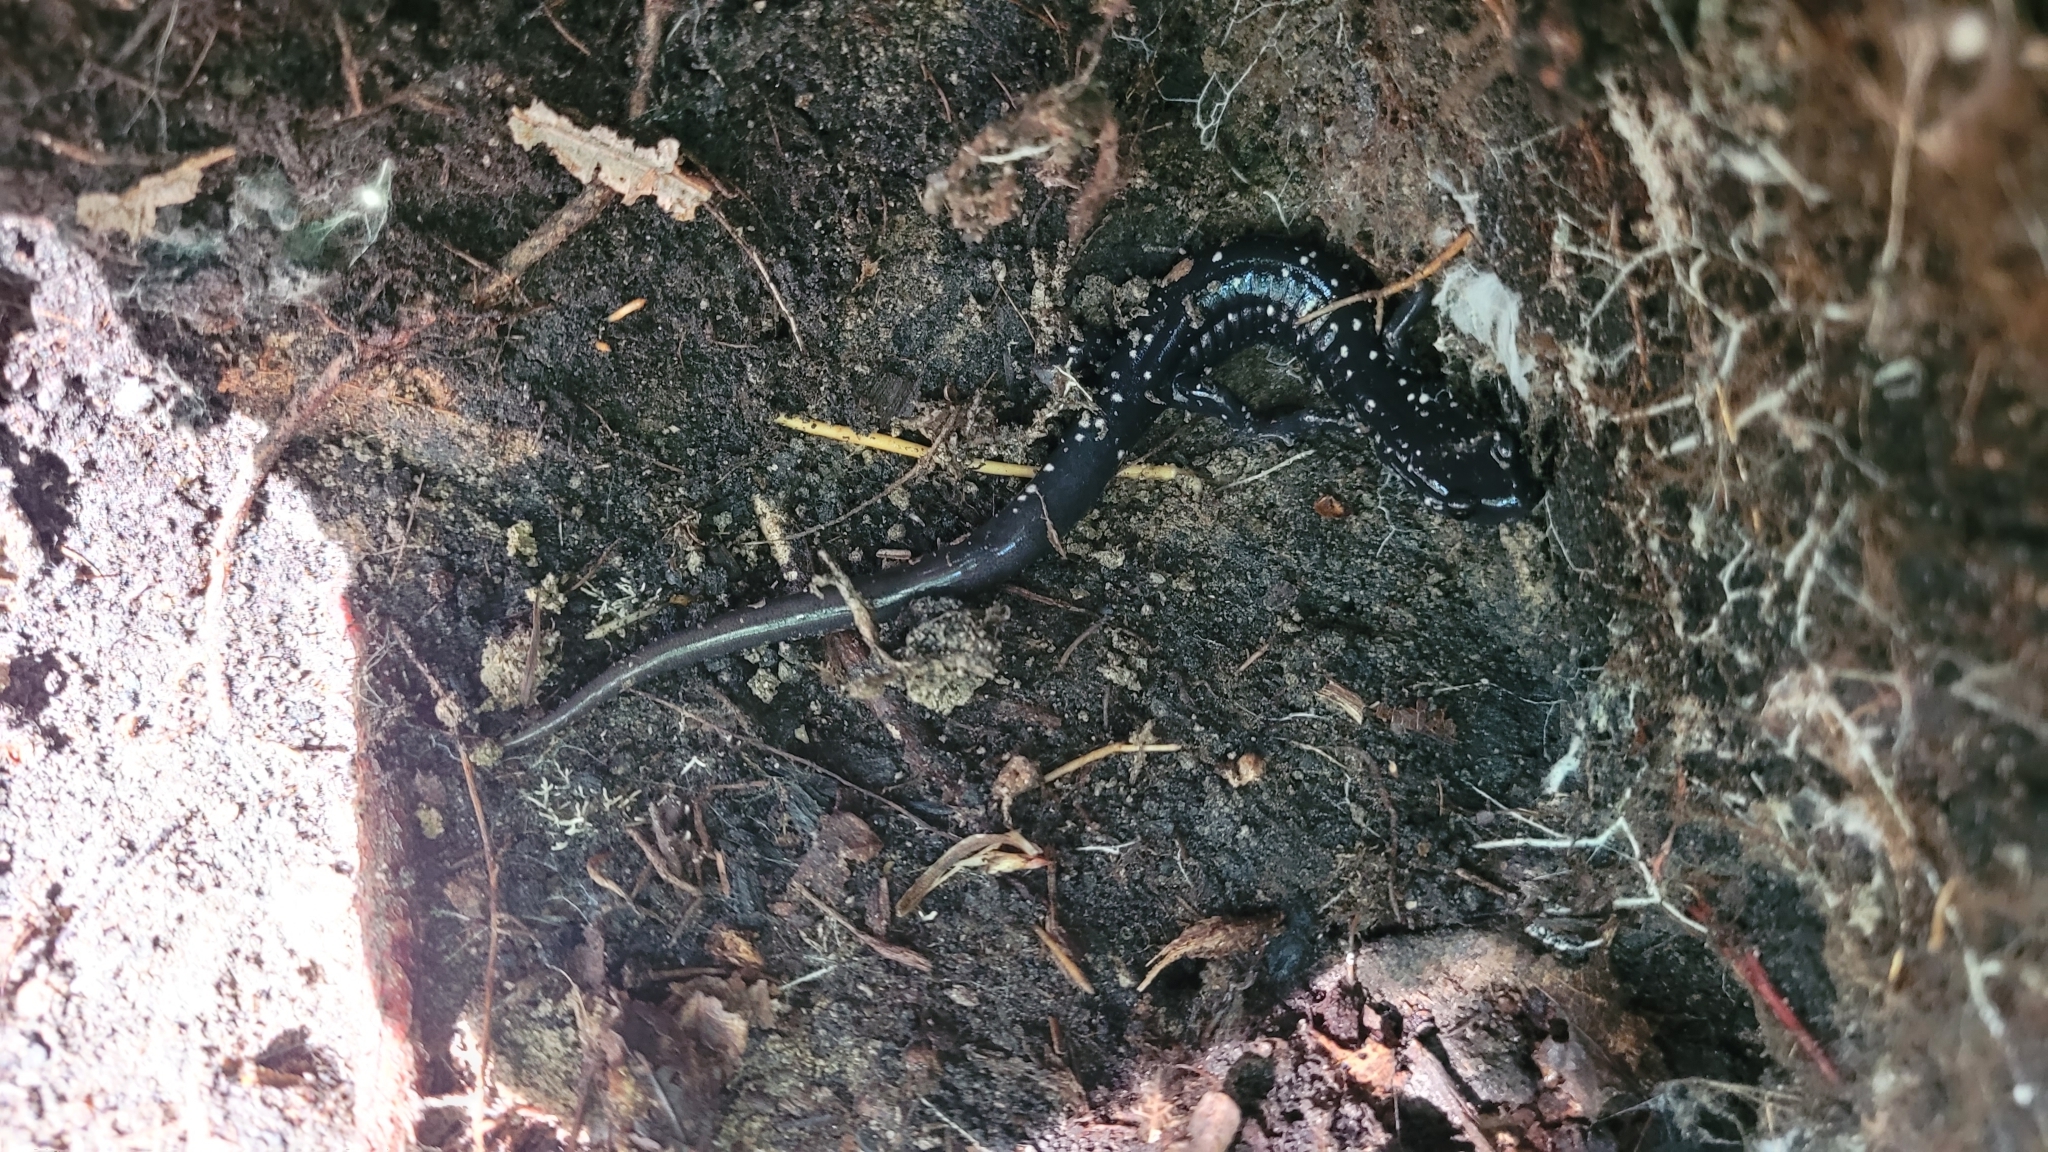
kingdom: Animalia
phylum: Chordata
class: Amphibia
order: Caudata
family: Plethodontidae
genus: Plethodon
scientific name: Plethodon glutinosus
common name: Northern slimy salamander
